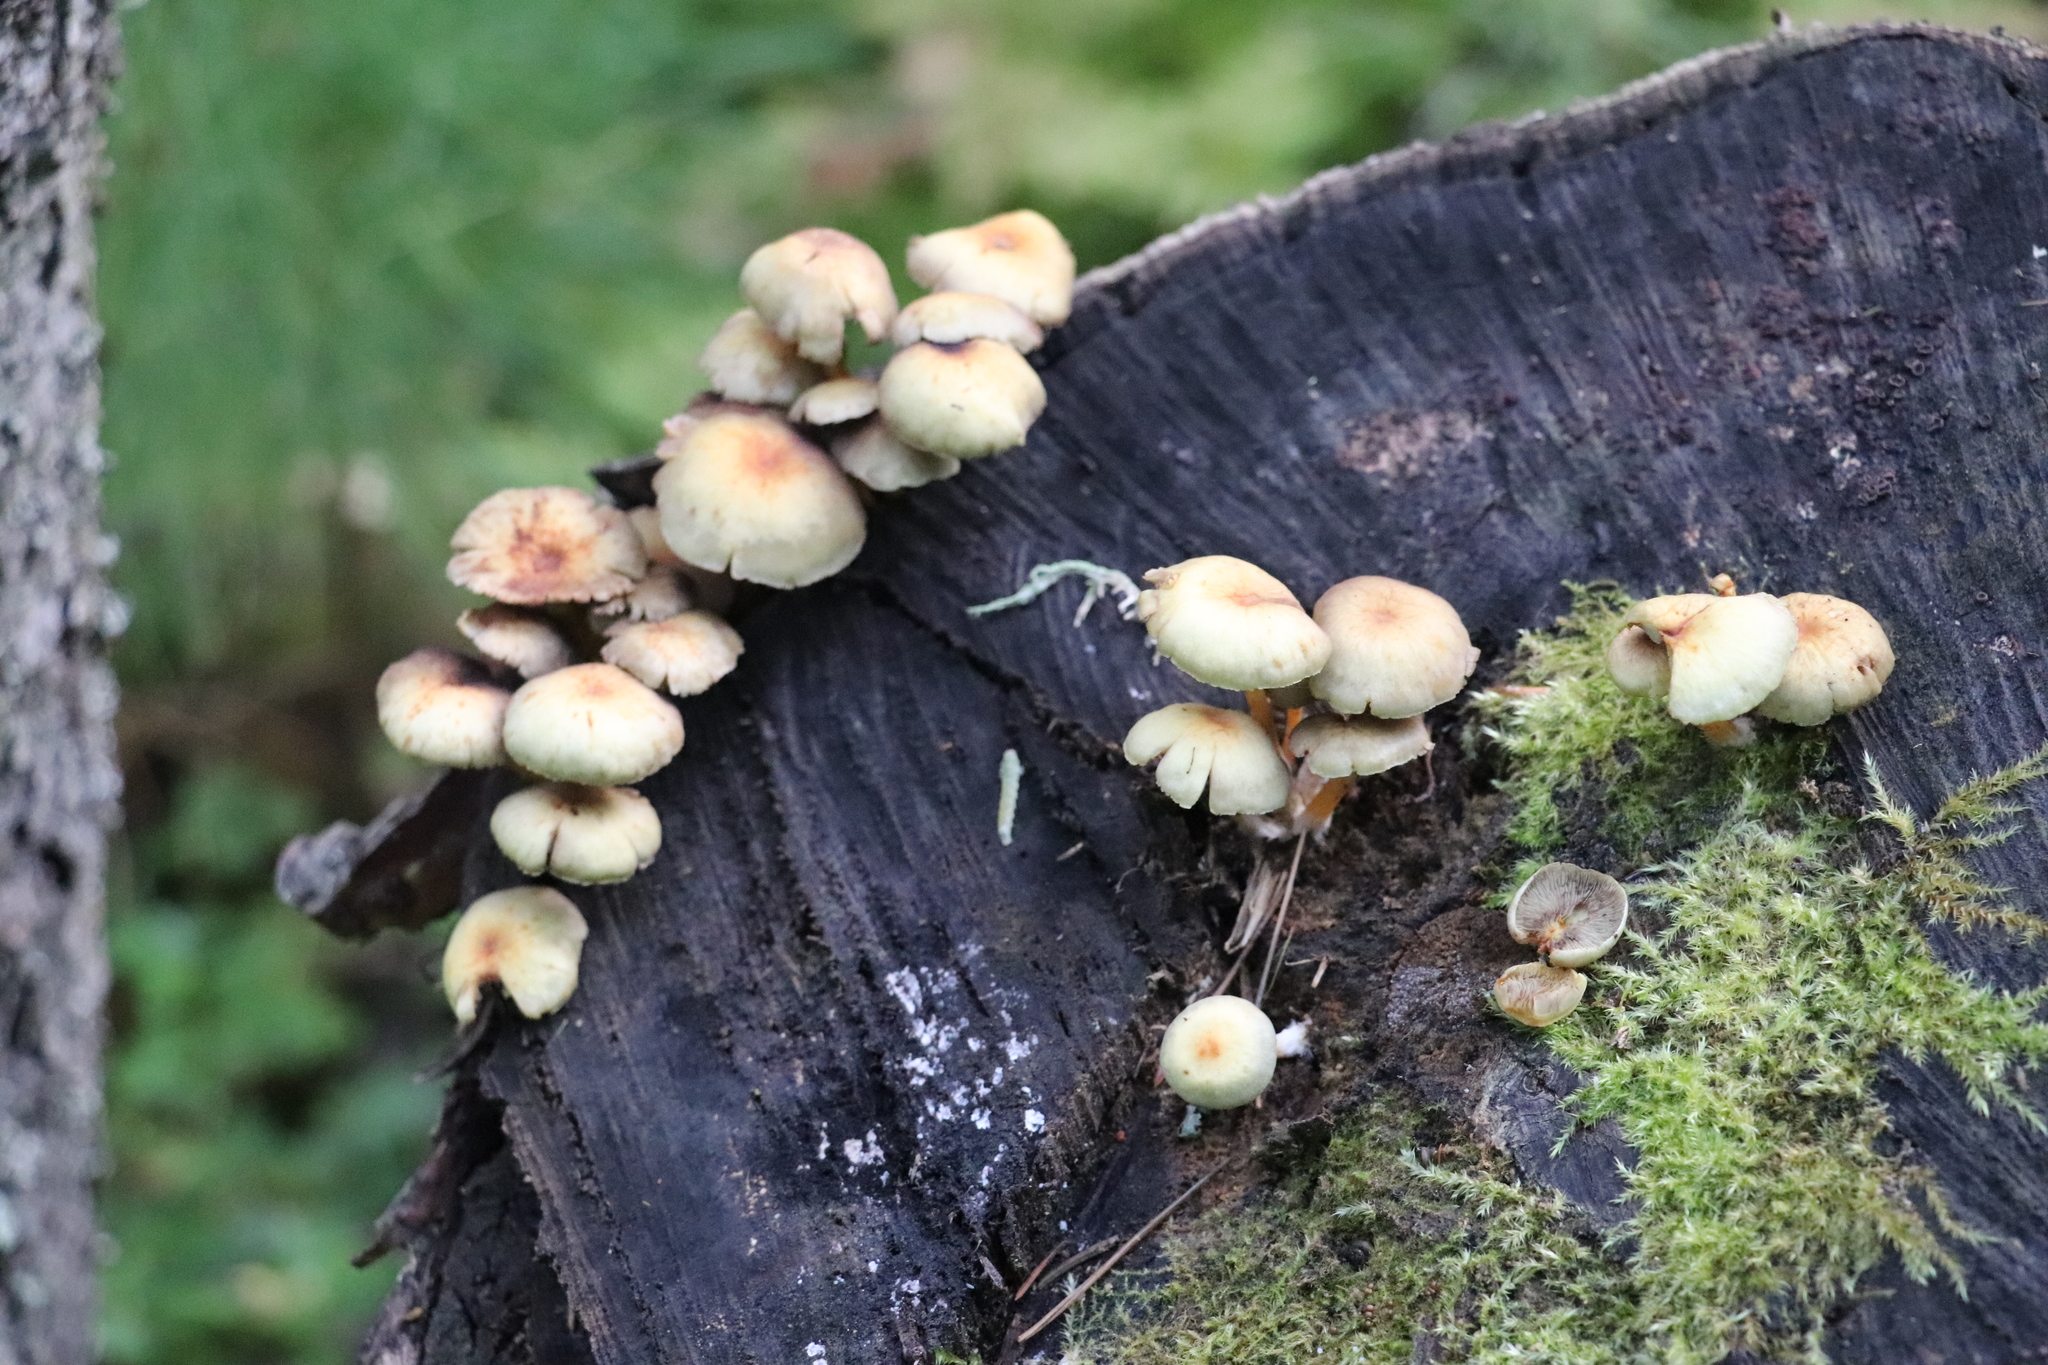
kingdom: Fungi
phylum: Basidiomycota
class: Agaricomycetes
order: Agaricales
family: Strophariaceae
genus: Hypholoma
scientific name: Hypholoma fasciculare
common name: Sulphur tuft
